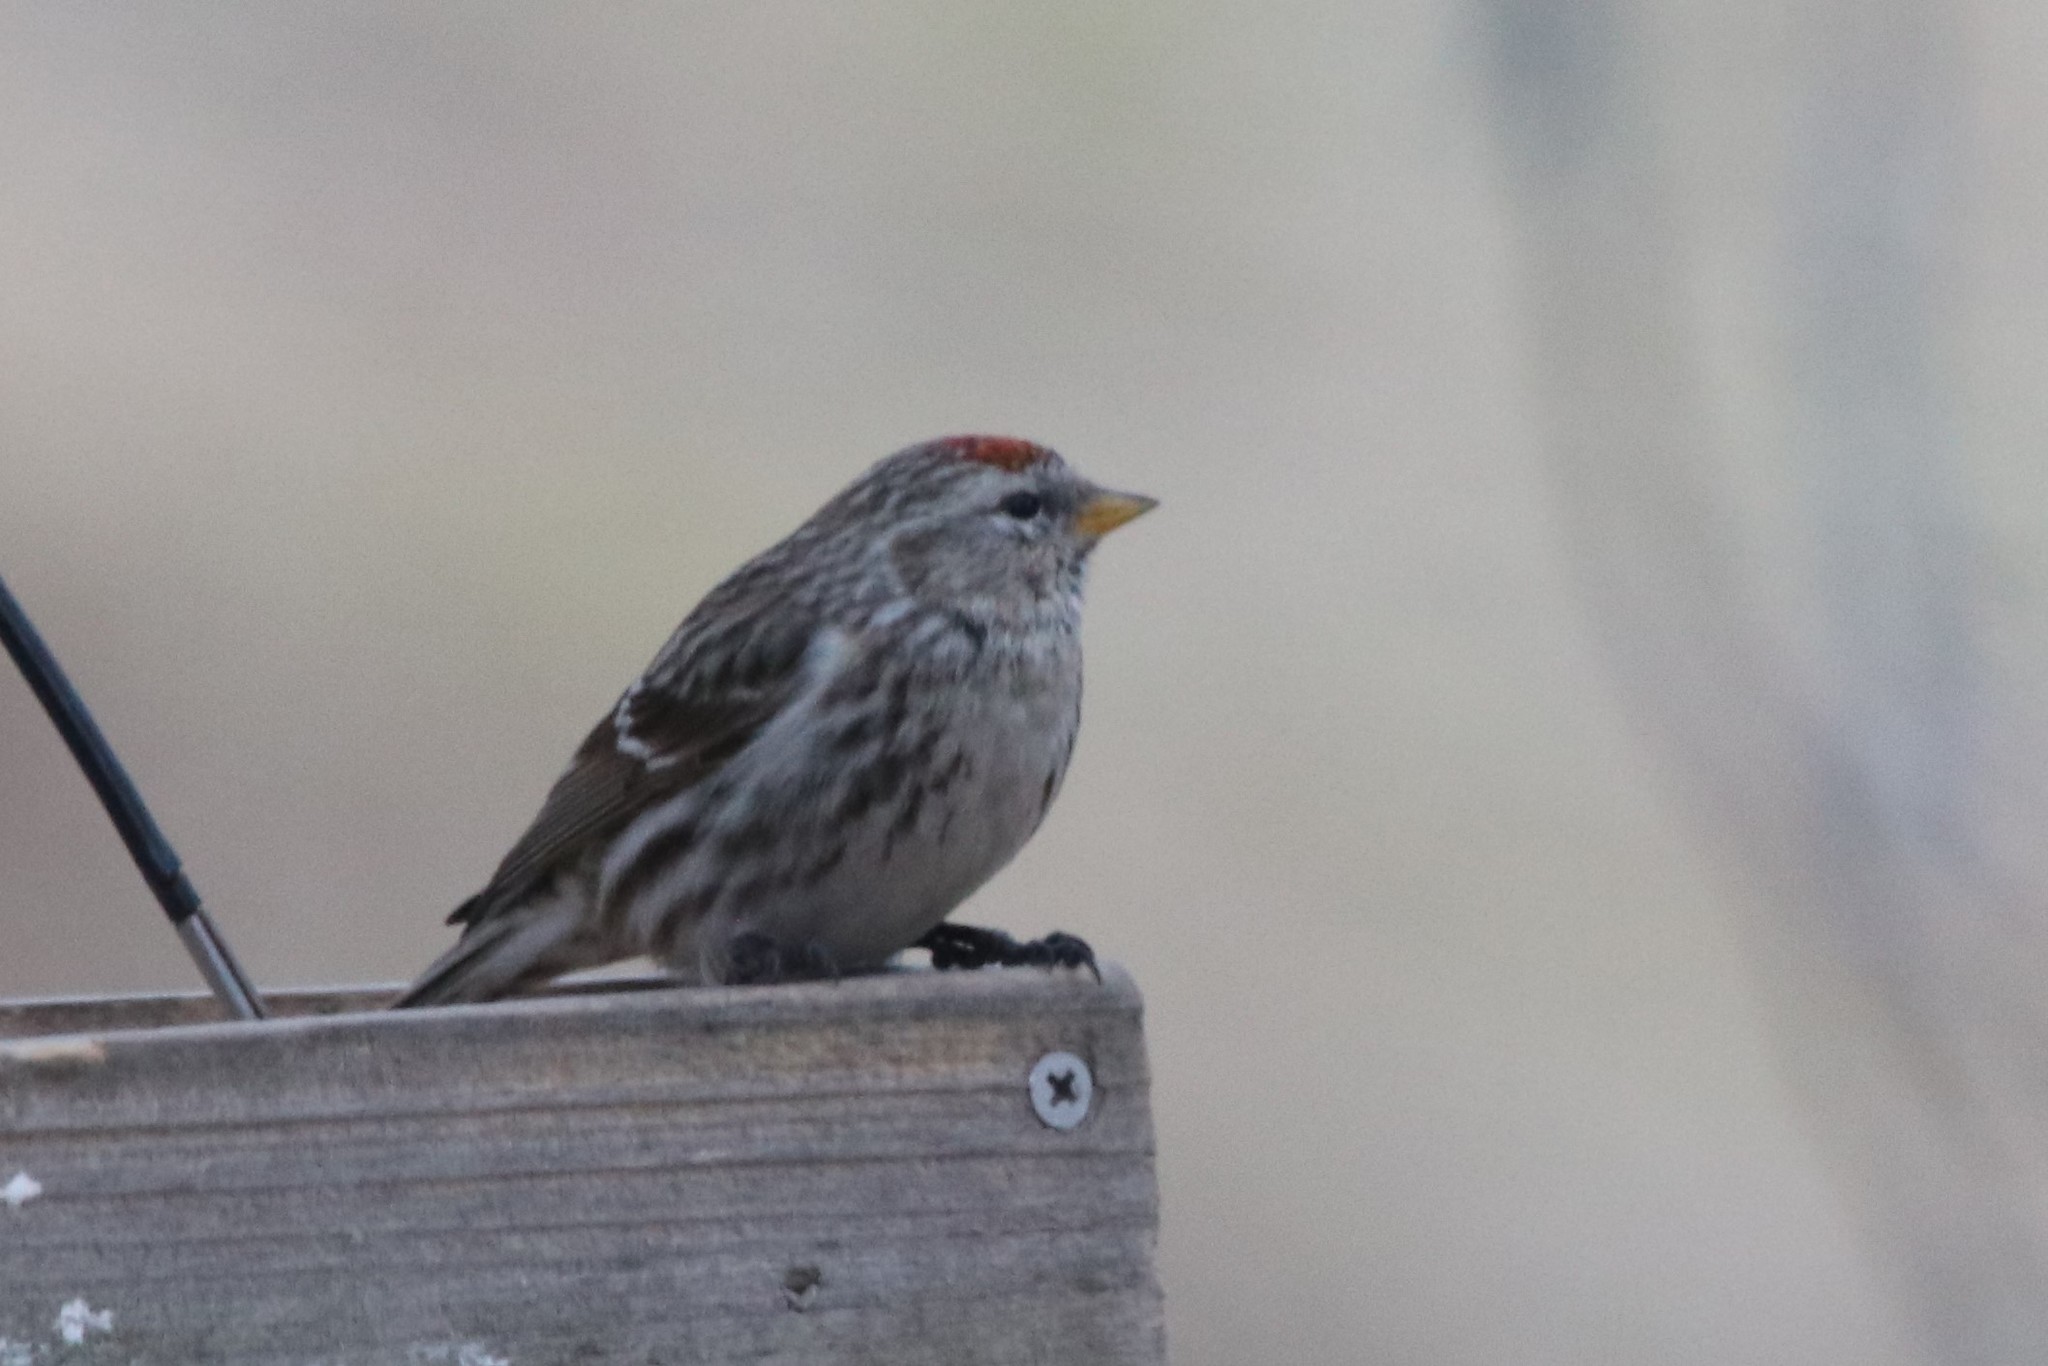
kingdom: Animalia
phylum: Chordata
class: Aves
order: Passeriformes
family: Fringillidae
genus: Acanthis
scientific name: Acanthis flammea
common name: Common redpoll
